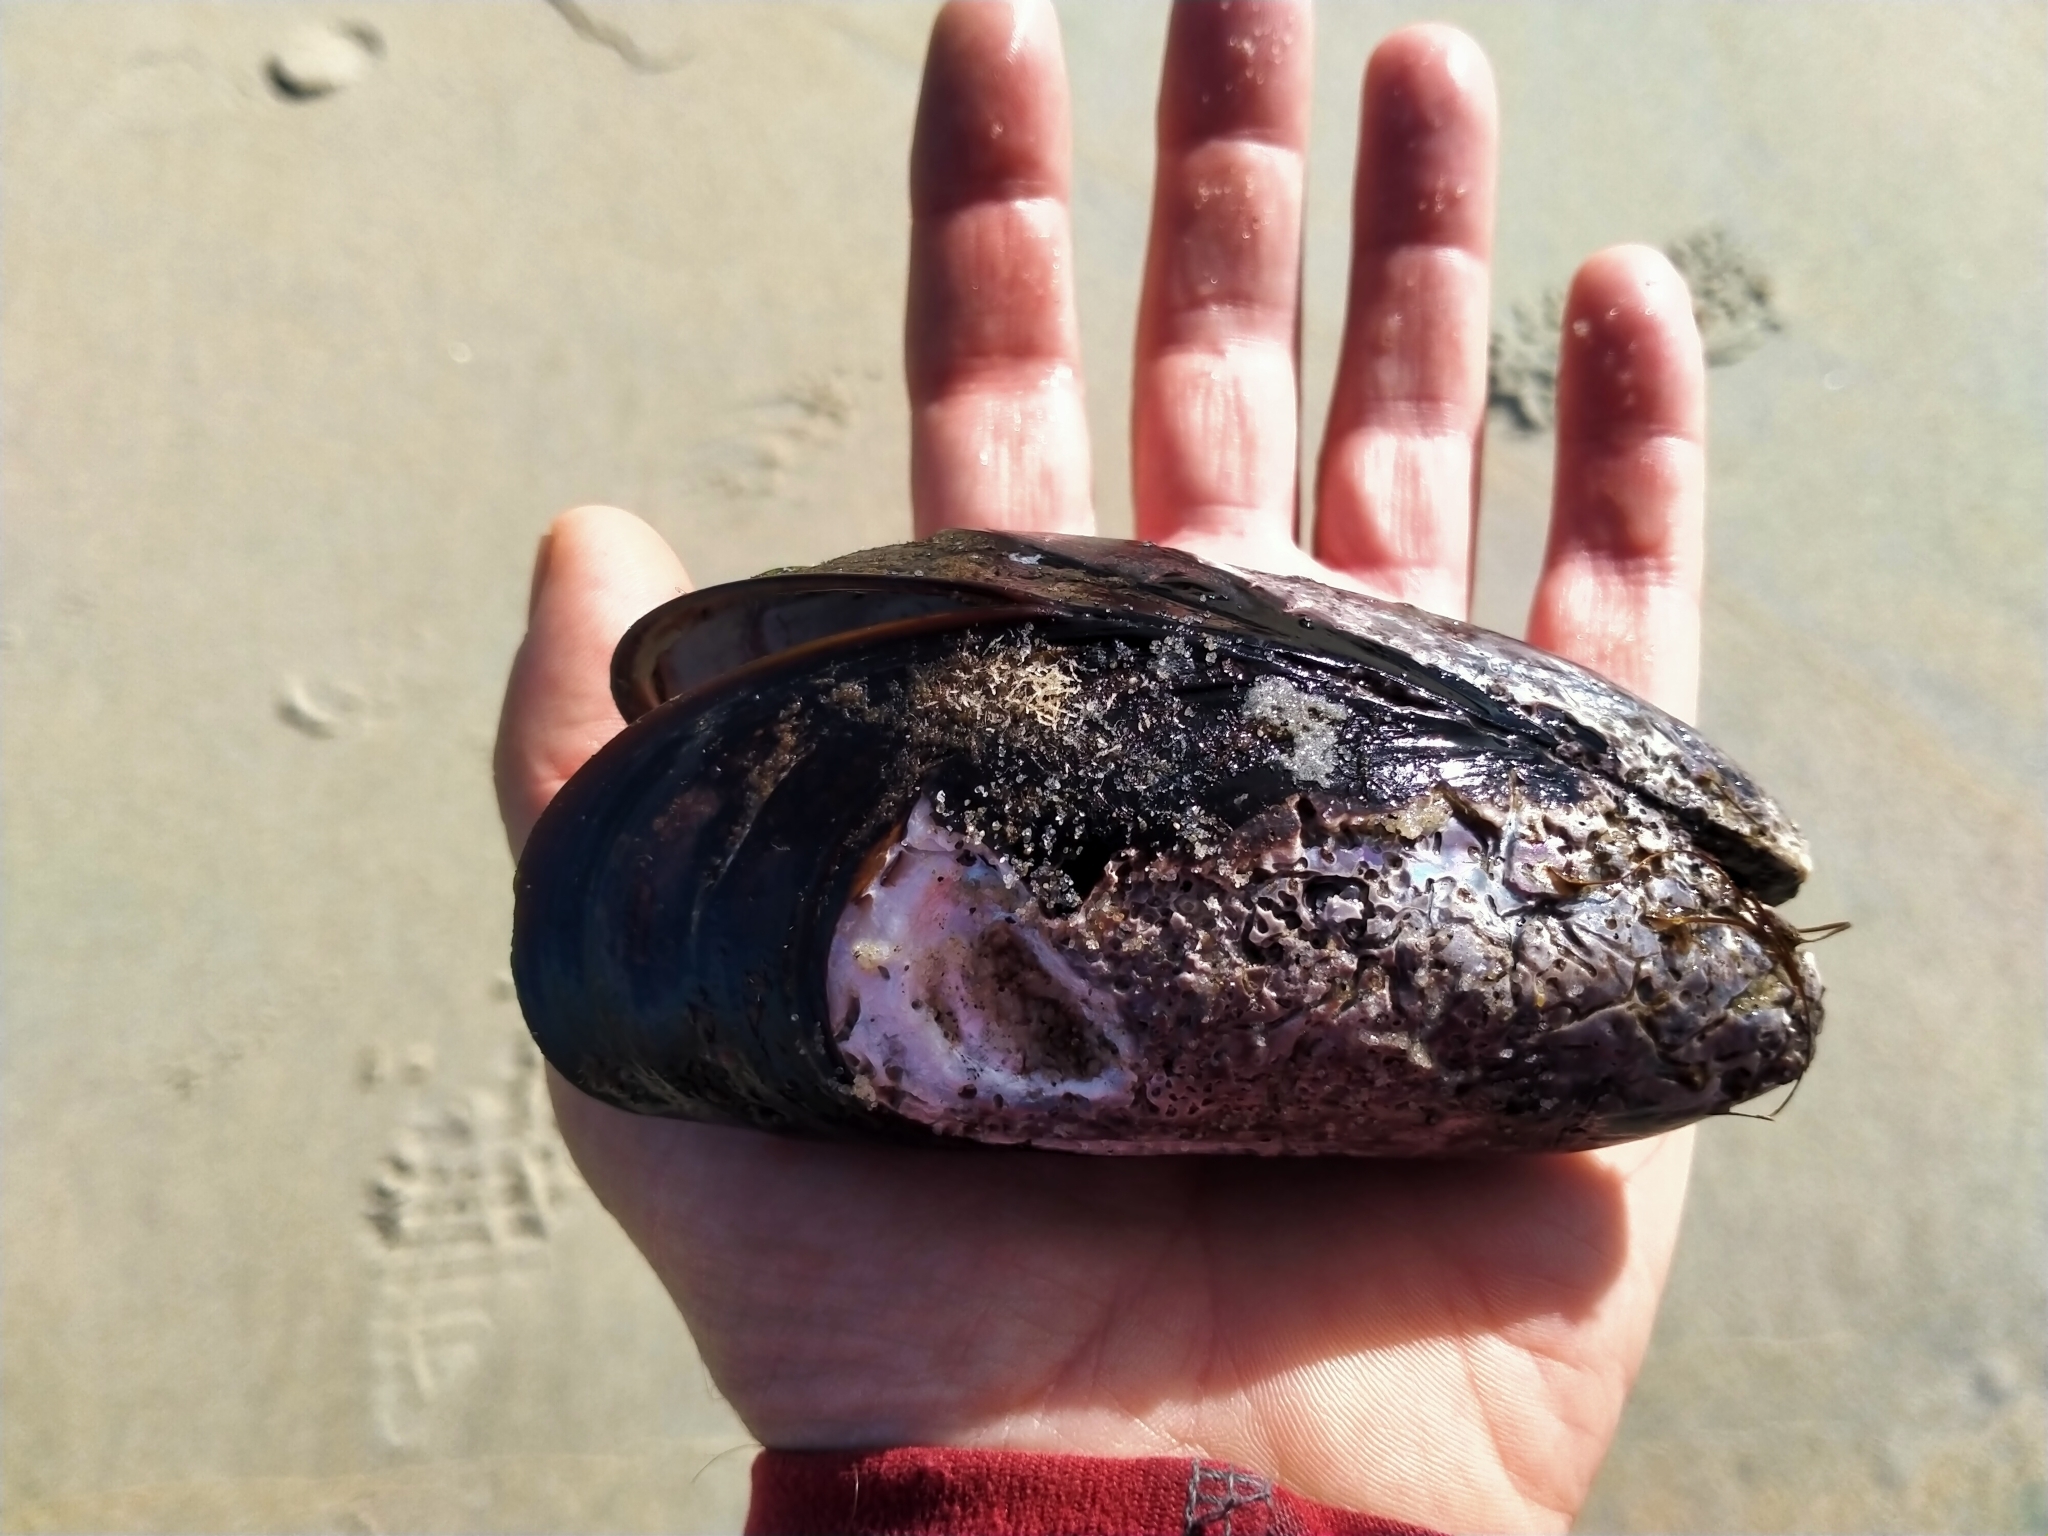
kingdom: Animalia
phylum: Mollusca
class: Bivalvia
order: Mytilida
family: Mytilidae
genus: Perna
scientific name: Perna canaliculus
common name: New zealand greenshelltm
